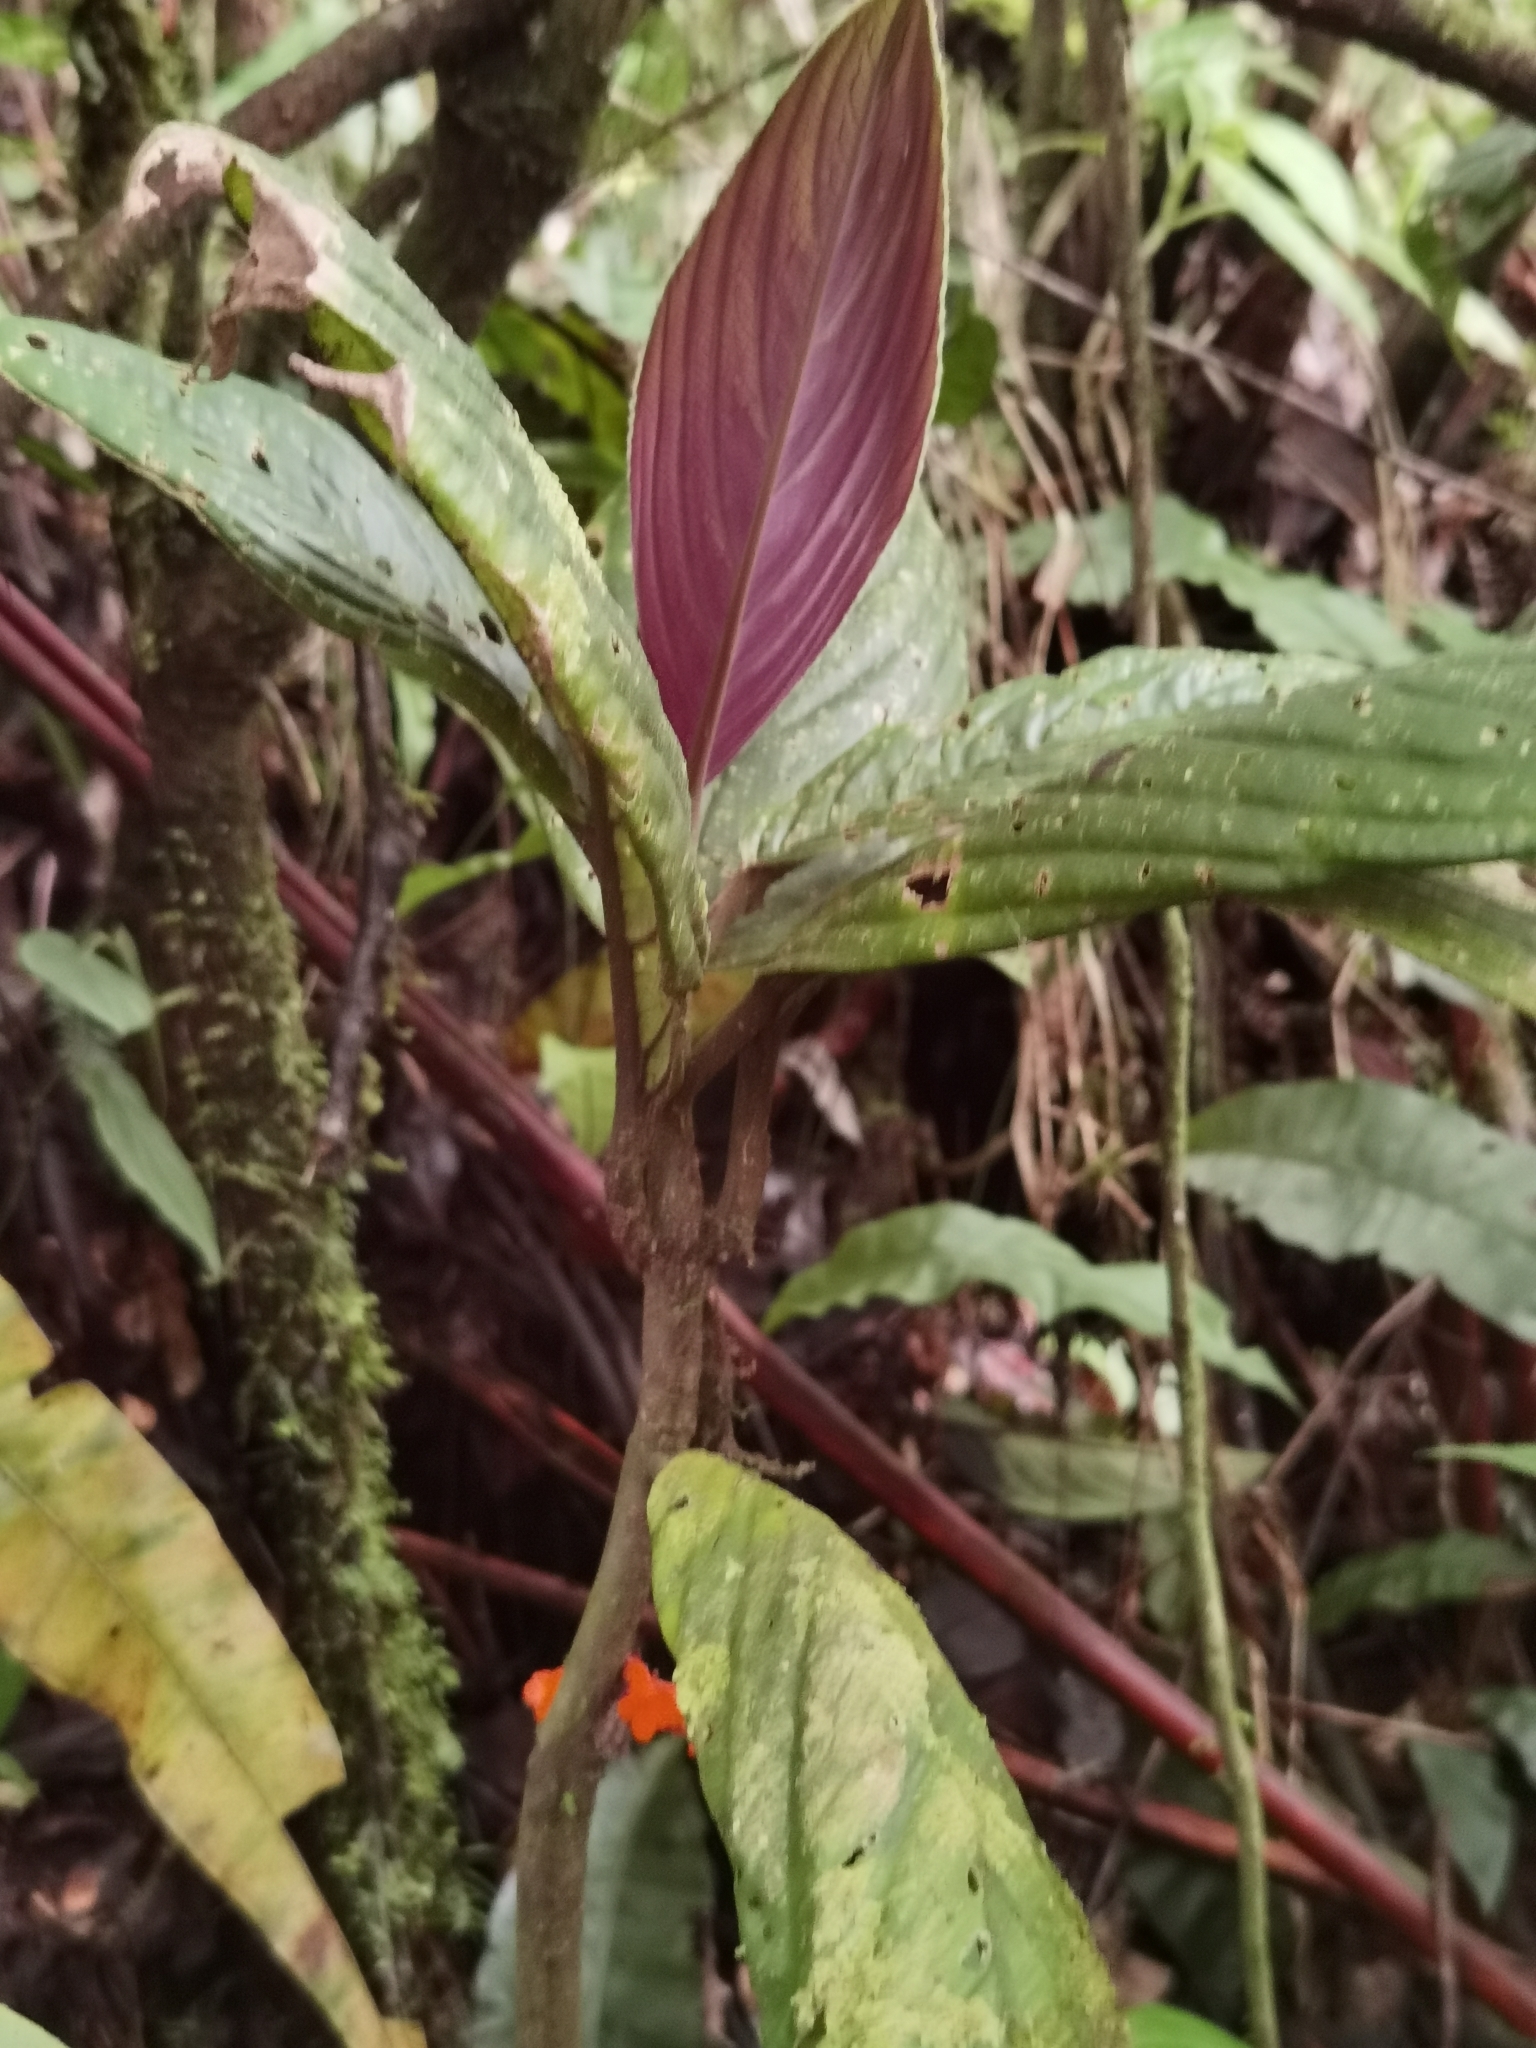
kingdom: Plantae
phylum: Tracheophyta
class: Magnoliopsida
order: Lamiales
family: Gesneriaceae
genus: Besleria
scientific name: Besleria notabilis
